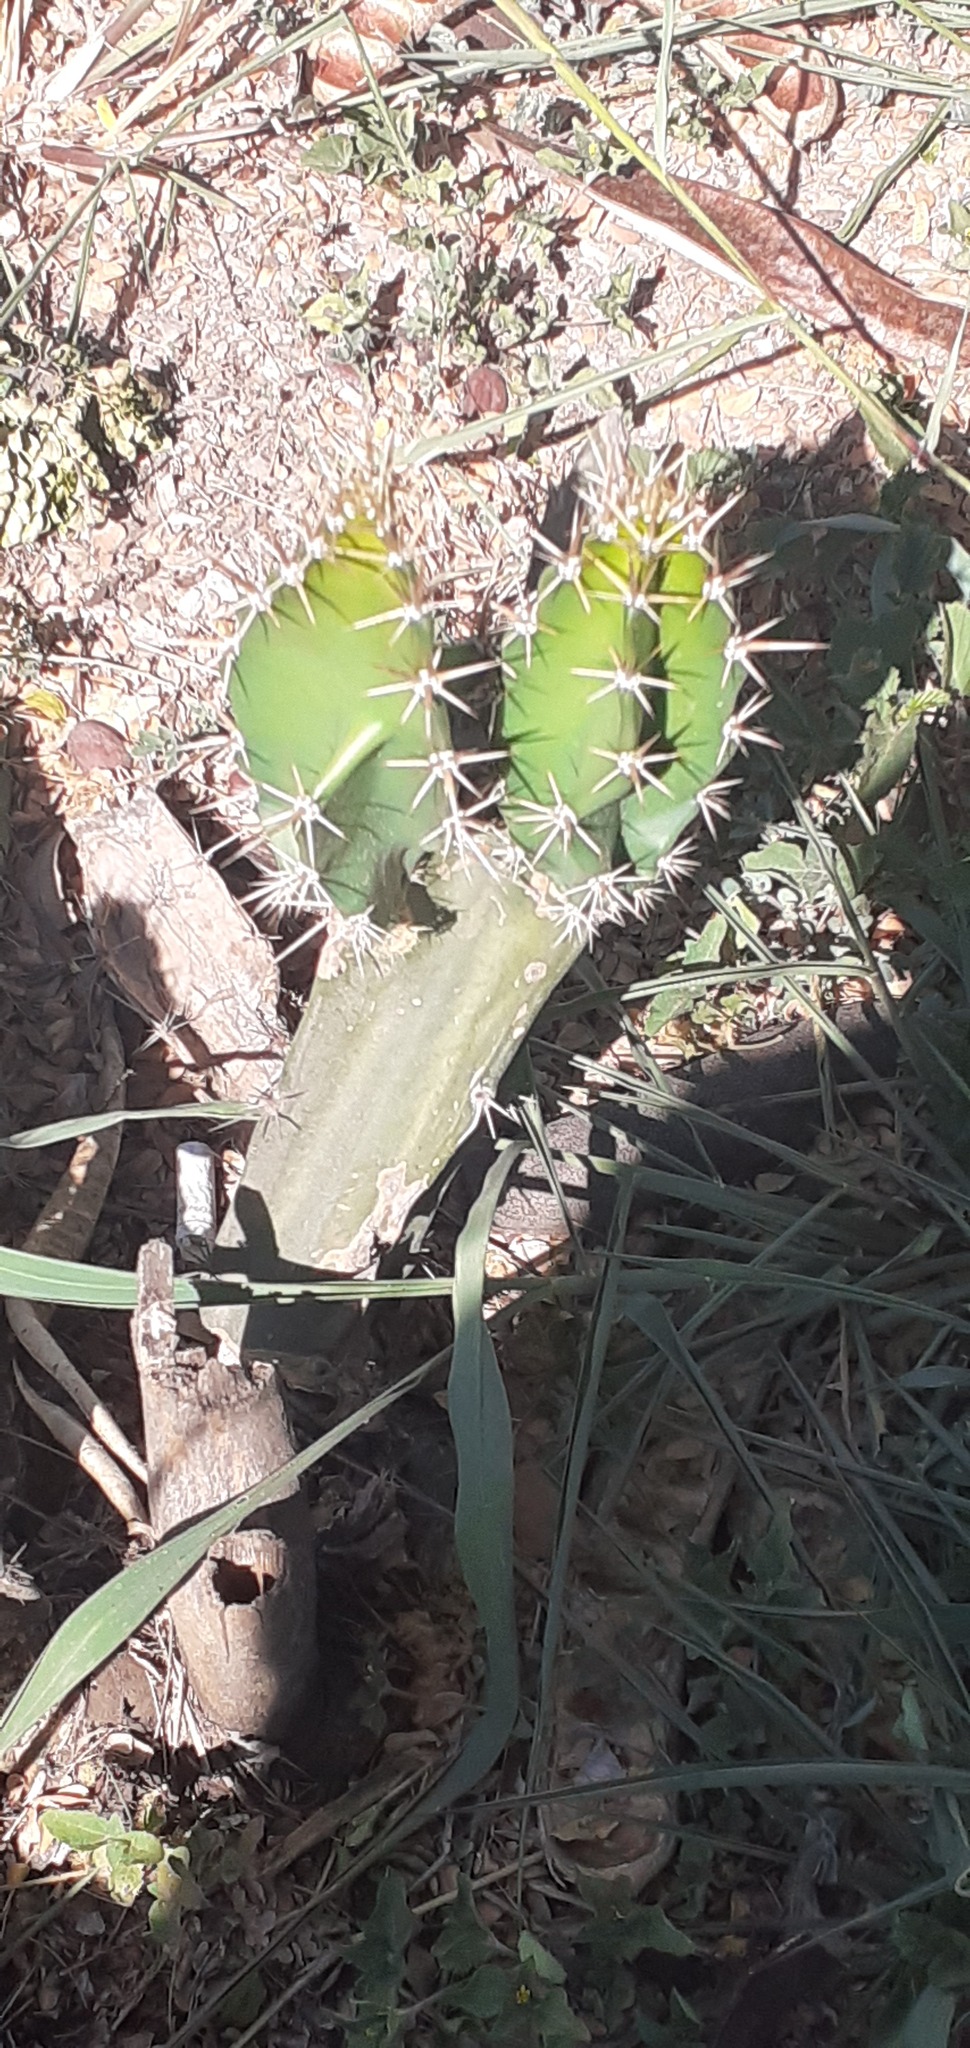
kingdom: Plantae
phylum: Tracheophyta
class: Magnoliopsida
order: Caryophyllales
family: Cactaceae
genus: Acanthocereus
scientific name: Acanthocereus tetragonus
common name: Triangle cactus
